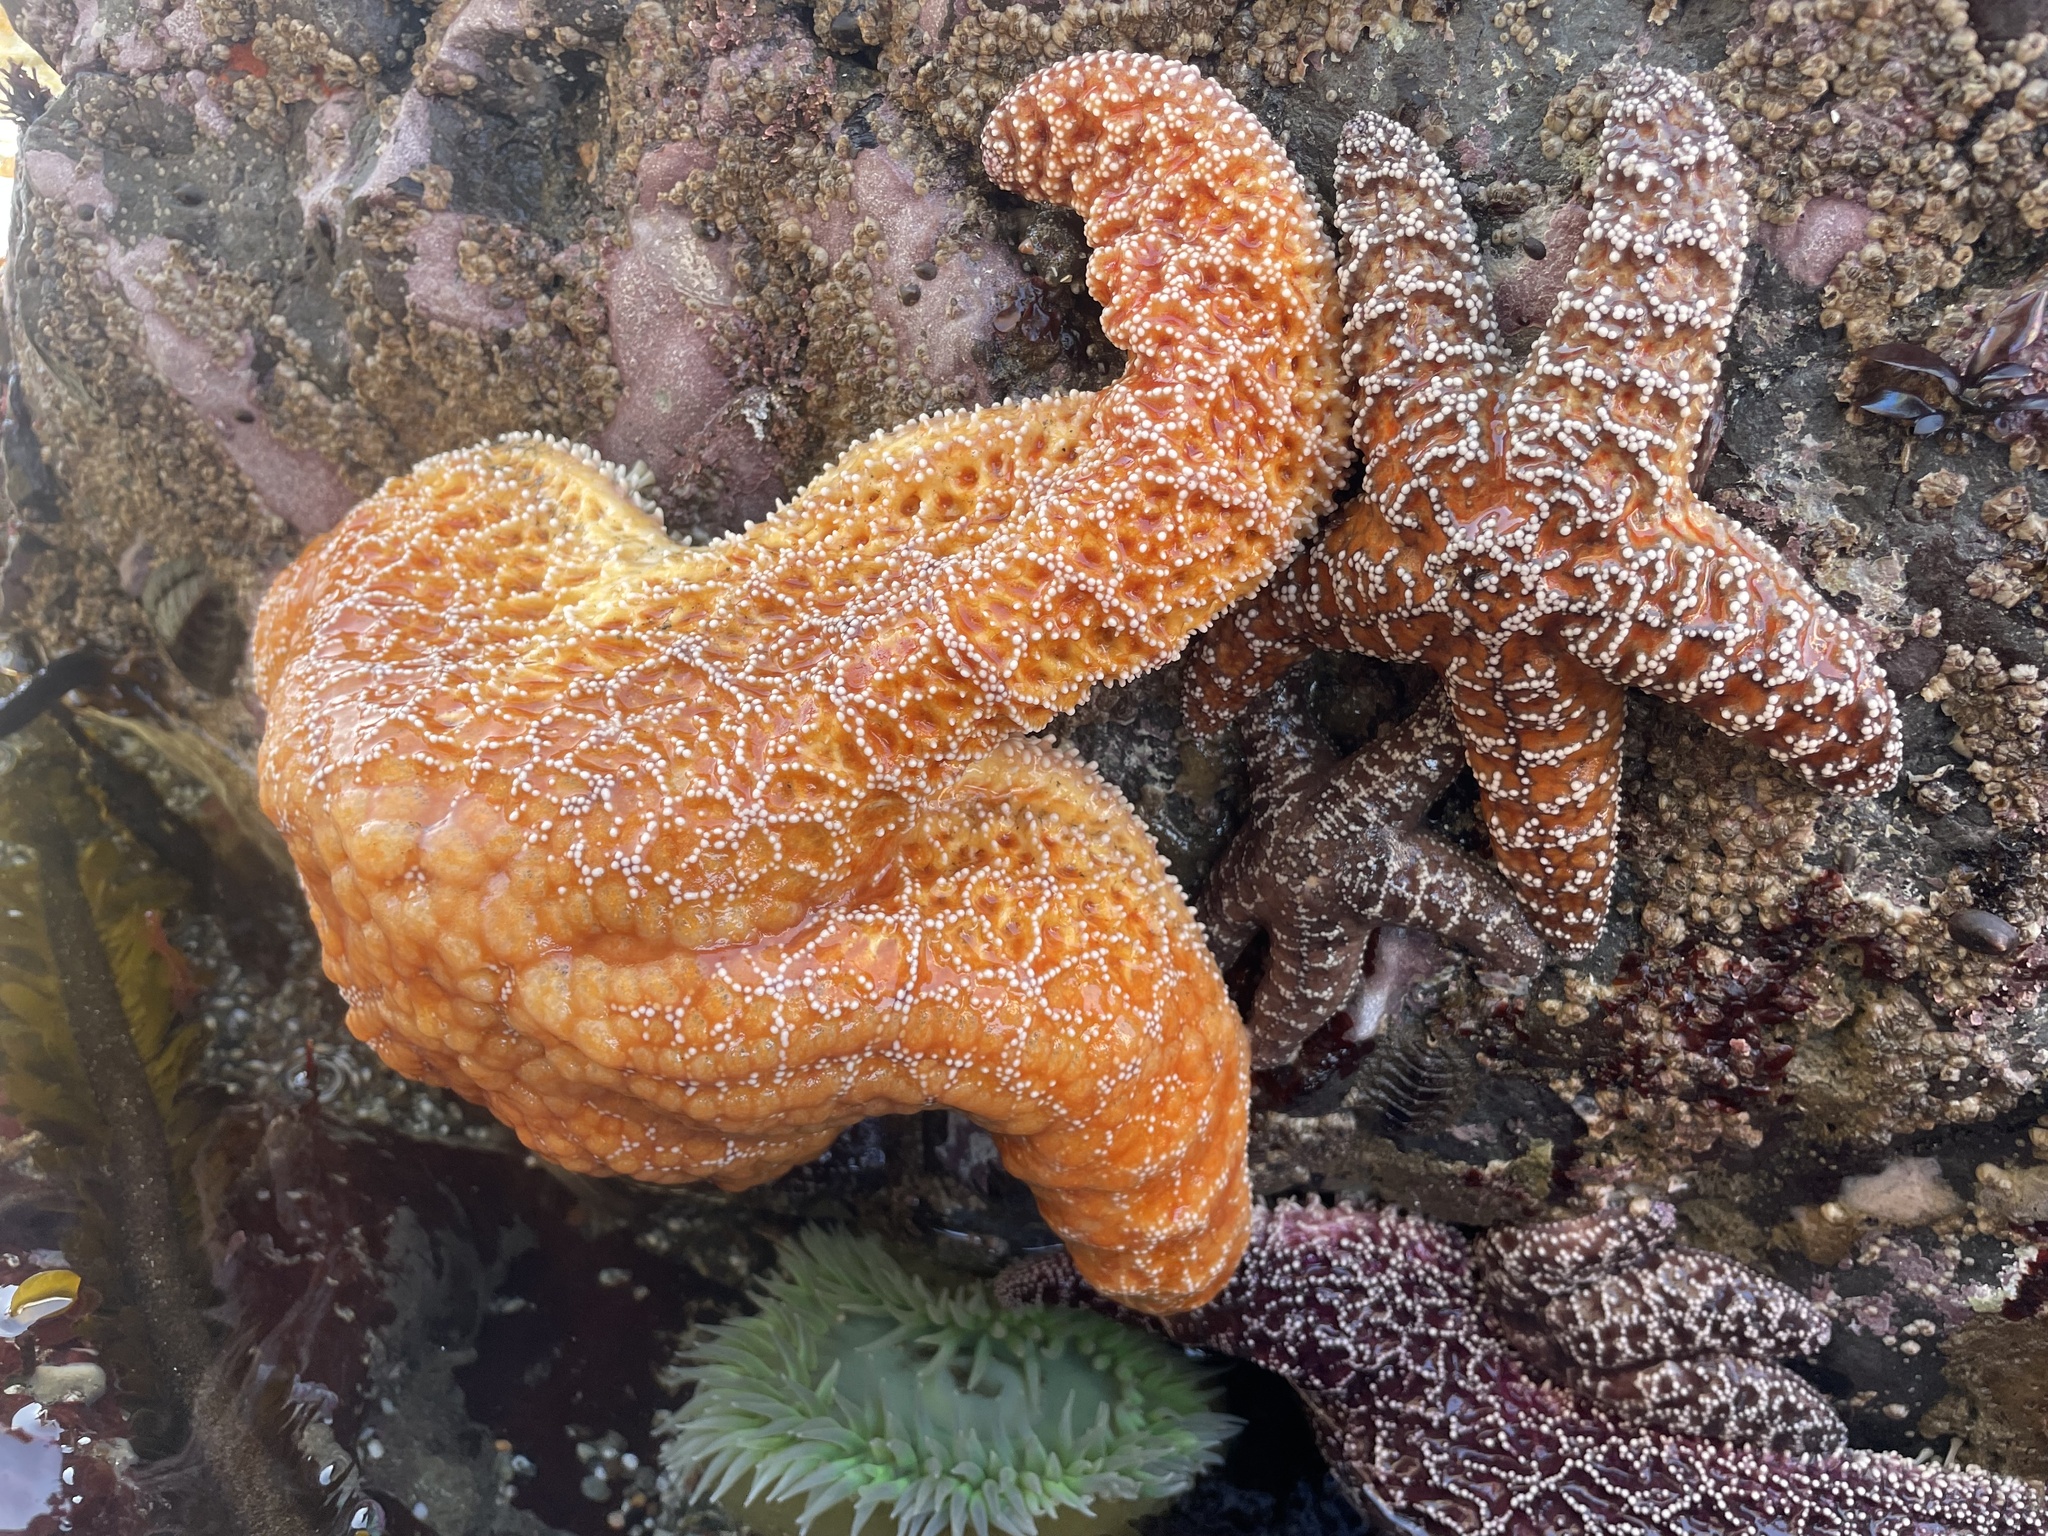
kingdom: Animalia
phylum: Echinodermata
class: Asteroidea
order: Forcipulatida
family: Asteriidae
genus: Pisaster
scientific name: Pisaster ochraceus
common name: Ochre stars
